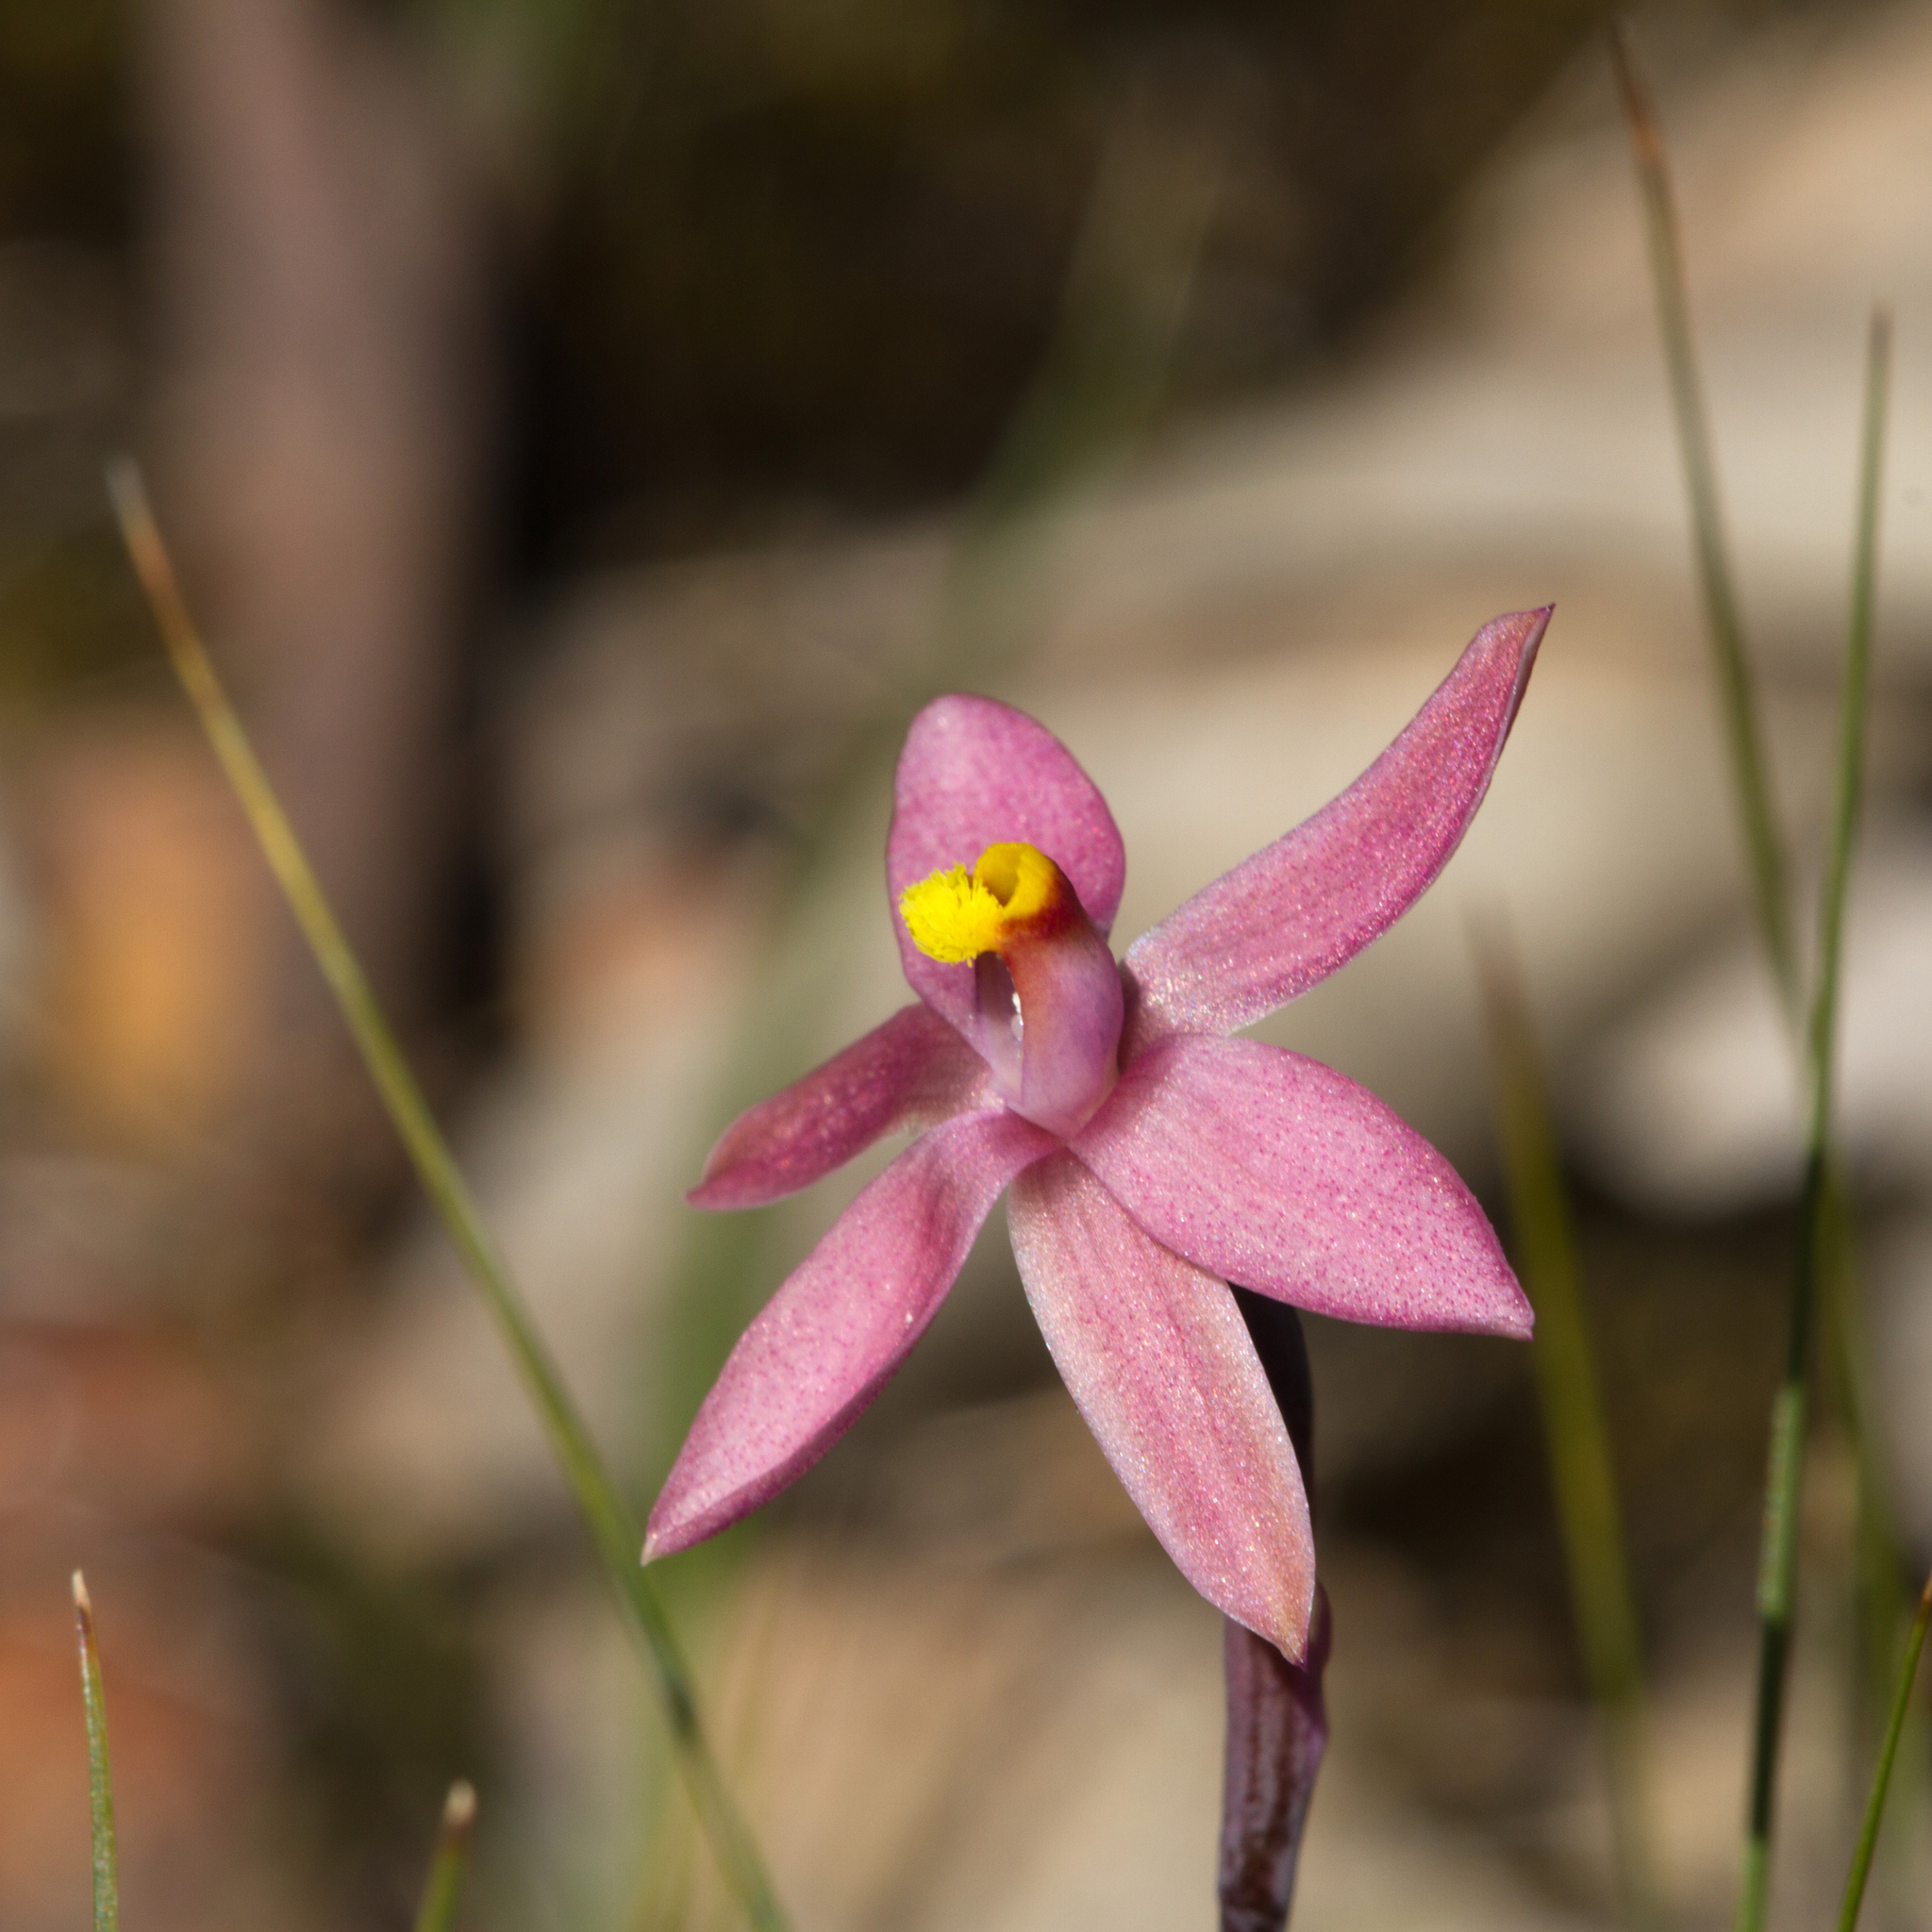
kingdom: Plantae
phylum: Tracheophyta
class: Liliopsida
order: Asparagales
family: Orchidaceae
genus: Thelymitra
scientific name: Thelymitra luteocilium
